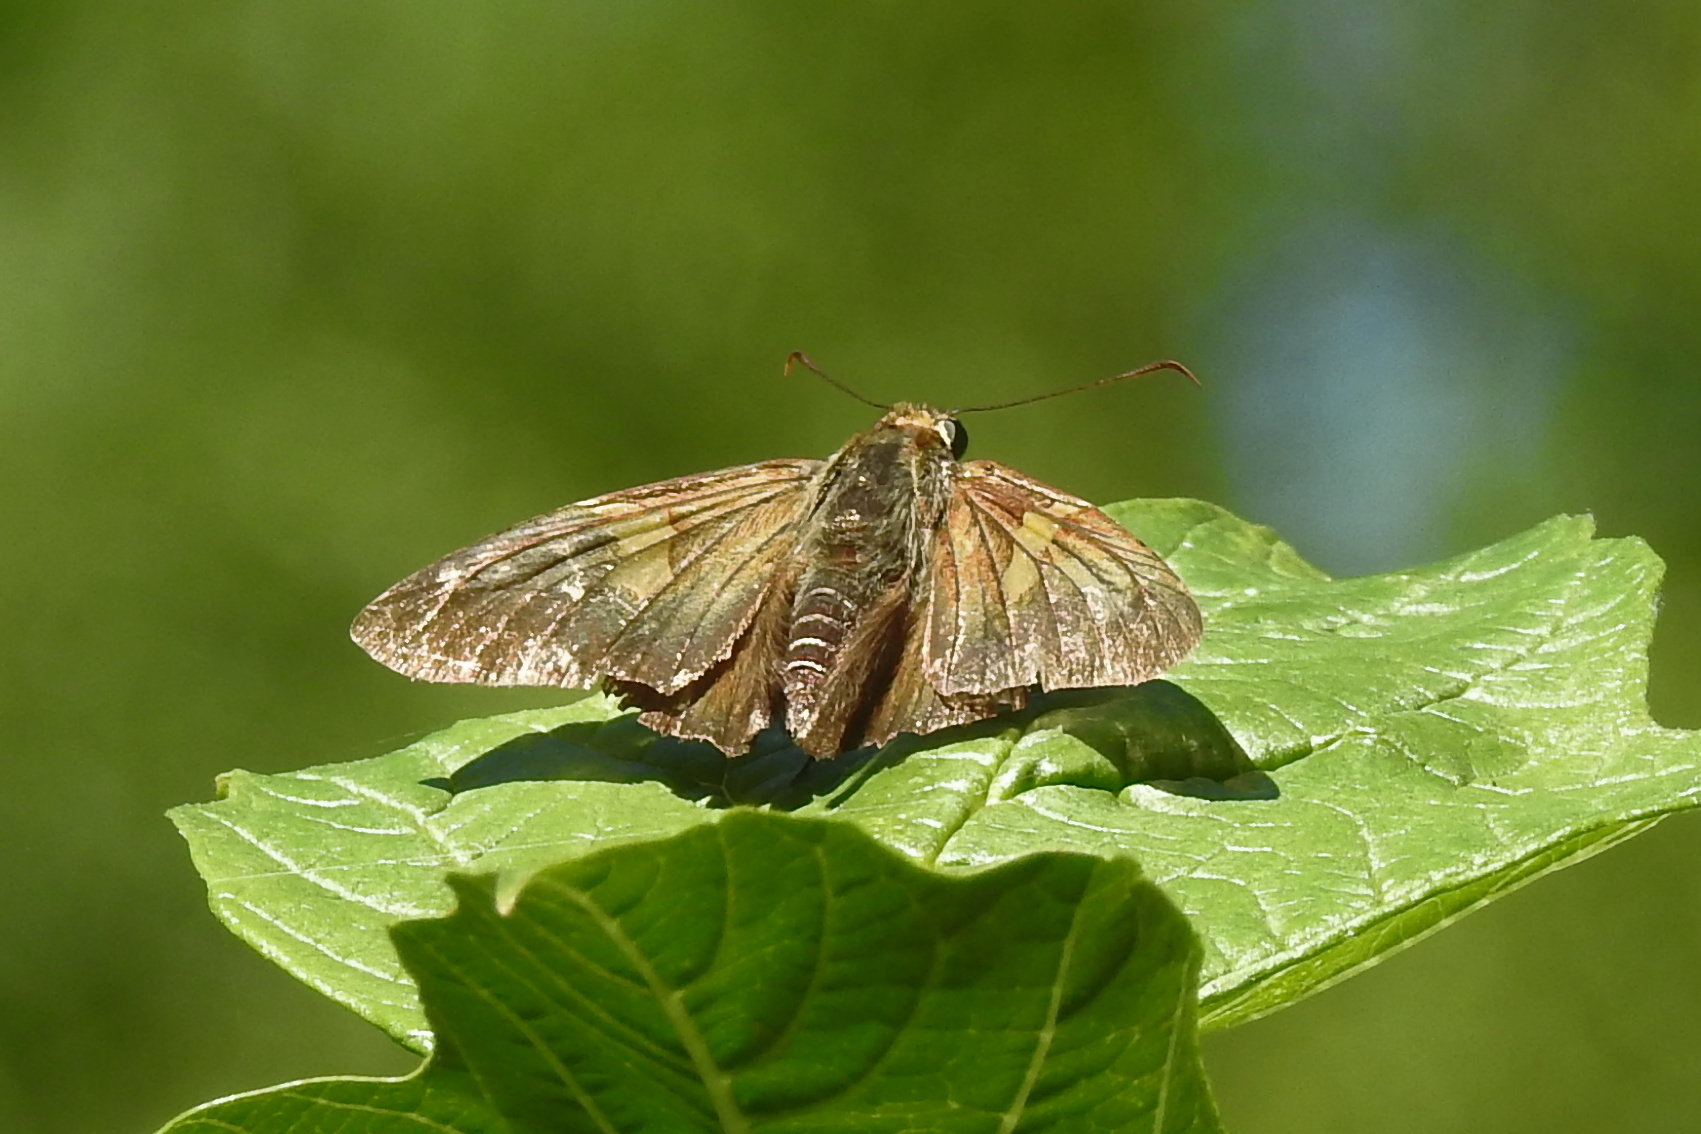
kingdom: Animalia
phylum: Arthropoda
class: Insecta
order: Lepidoptera
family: Hesperiidae
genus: Epargyreus
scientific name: Epargyreus clarus
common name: Silver-spotted skipper
